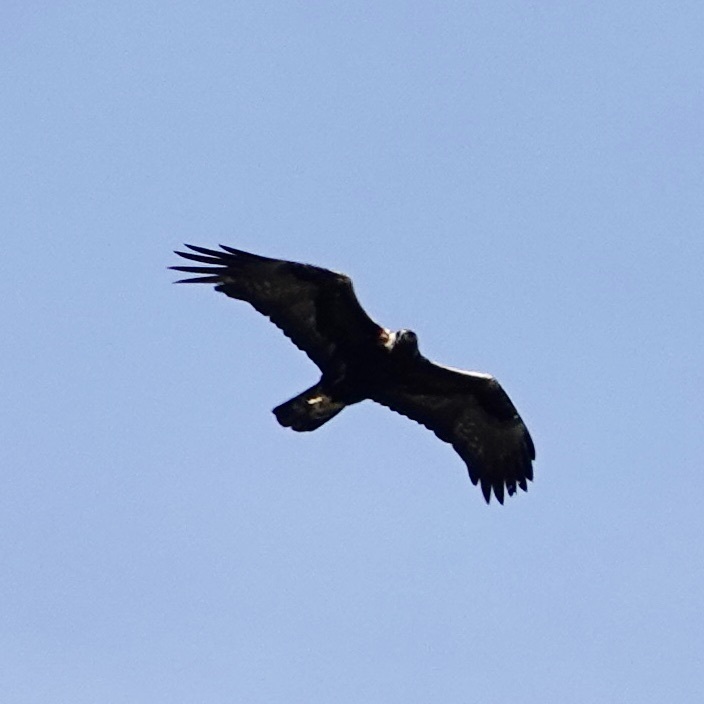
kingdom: Animalia
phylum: Chordata
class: Aves
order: Accipitriformes
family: Accipitridae
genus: Aquila
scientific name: Aquila chrysaetos
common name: Golden eagle
